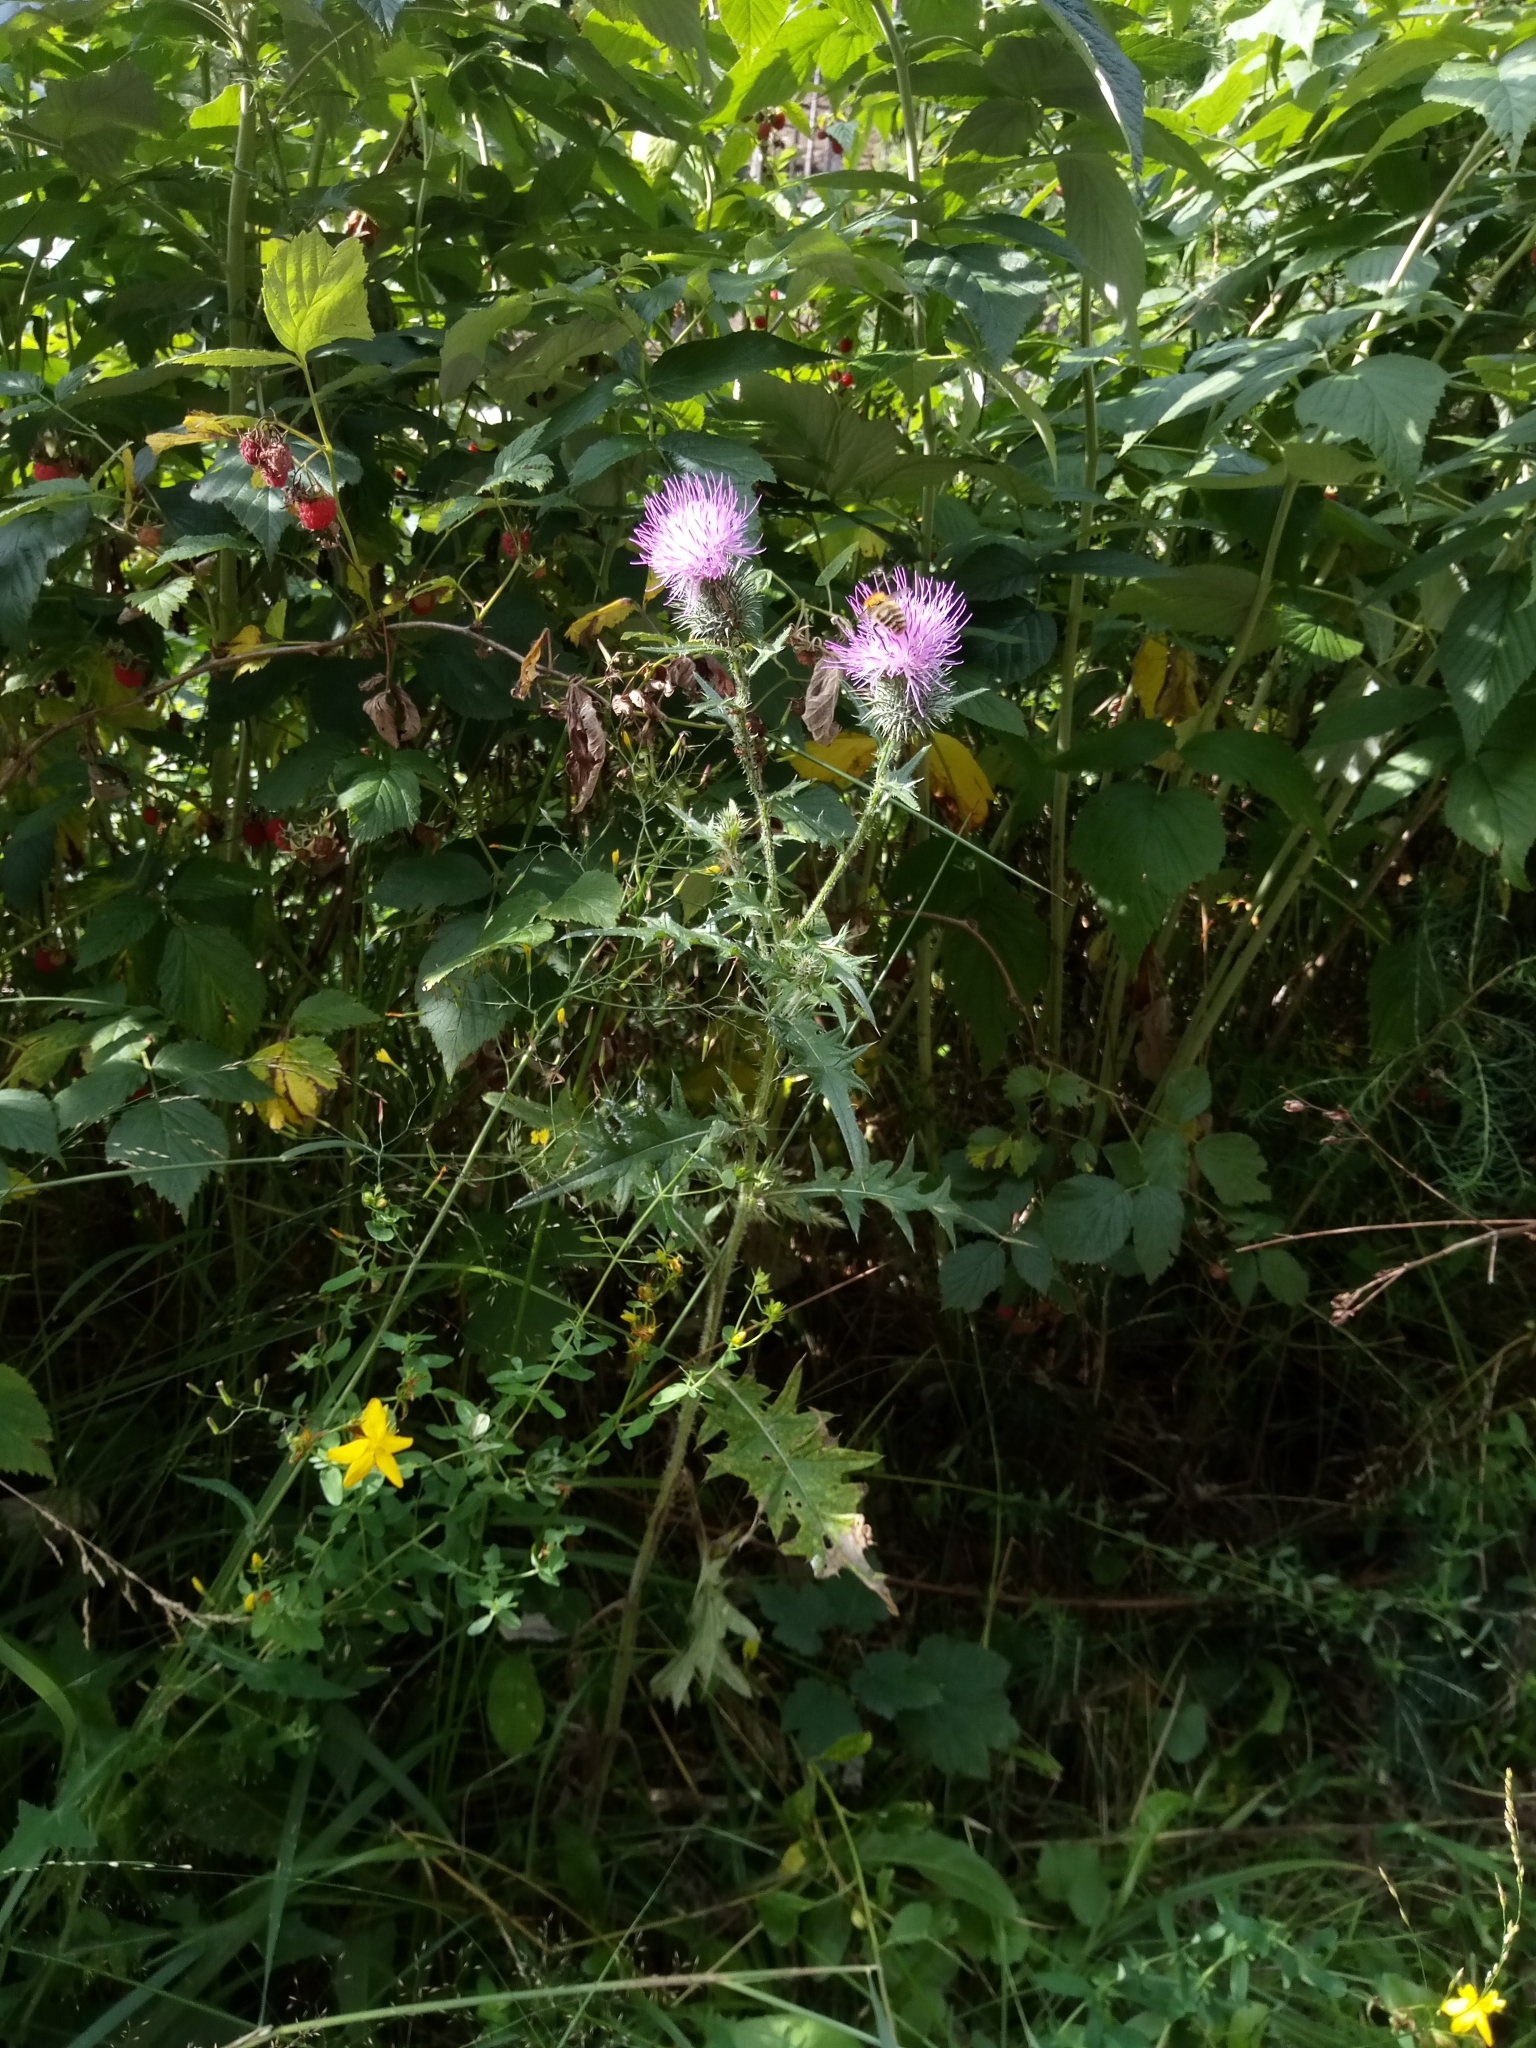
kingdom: Plantae
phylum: Tracheophyta
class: Magnoliopsida
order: Asterales
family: Asteraceae
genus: Cirsium
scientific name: Cirsium vulgare
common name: Bull thistle
